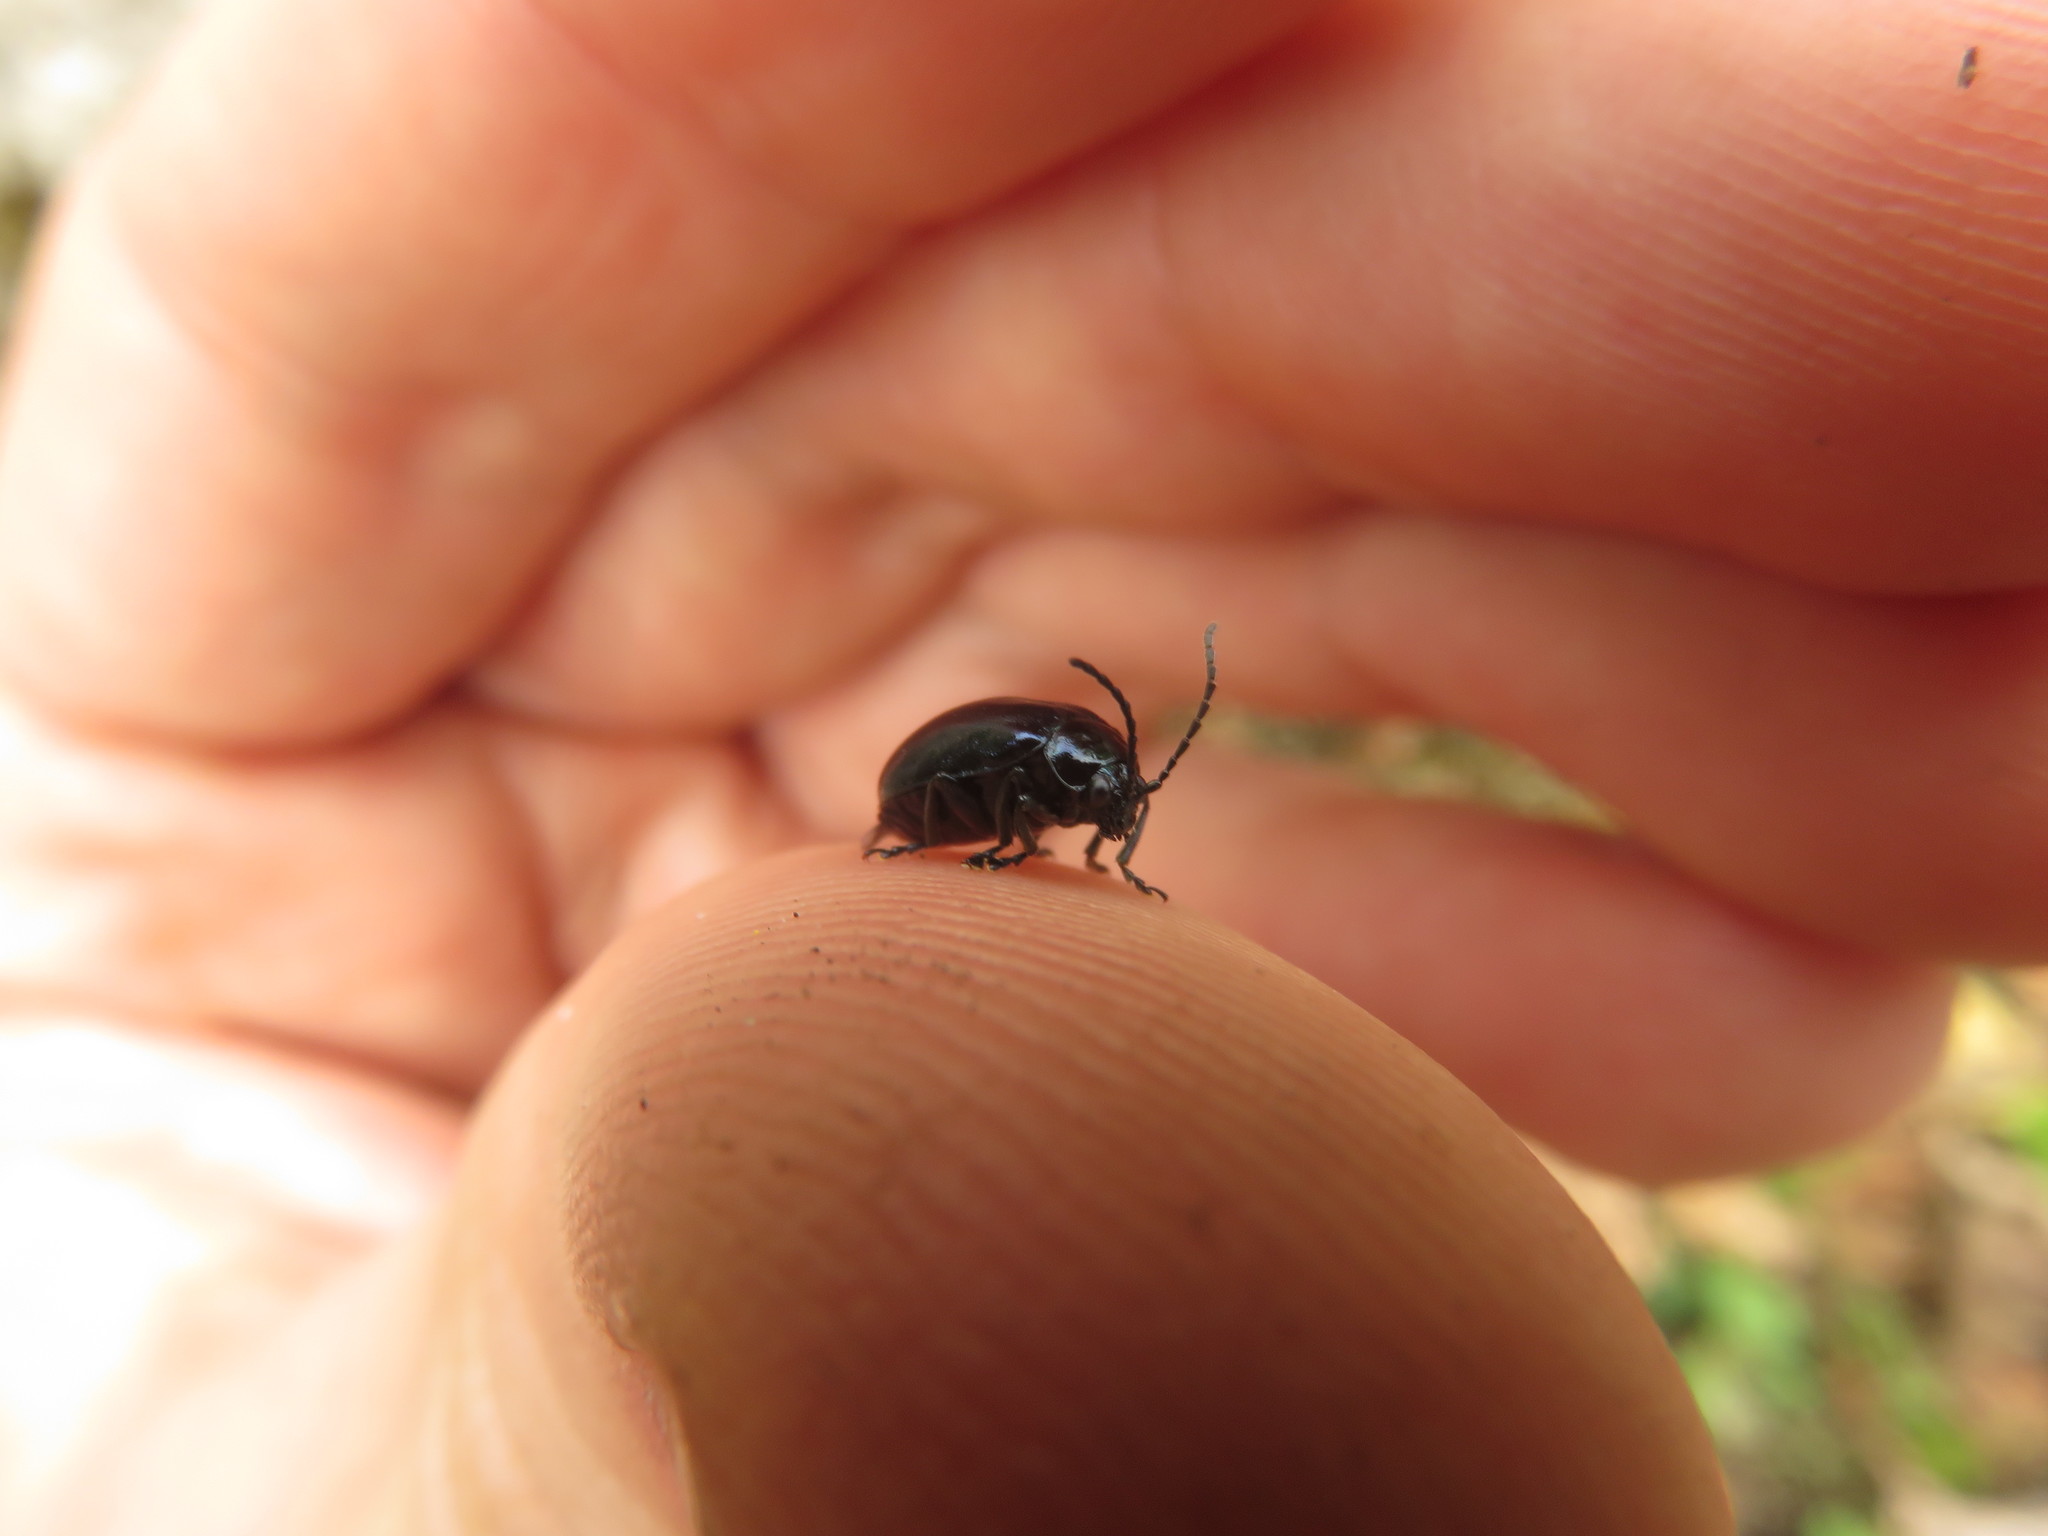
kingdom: Animalia
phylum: Arthropoda
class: Insecta
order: Coleoptera
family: Chrysomelidae
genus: Agelastica
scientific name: Agelastica alni
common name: Alder leaf beetle
